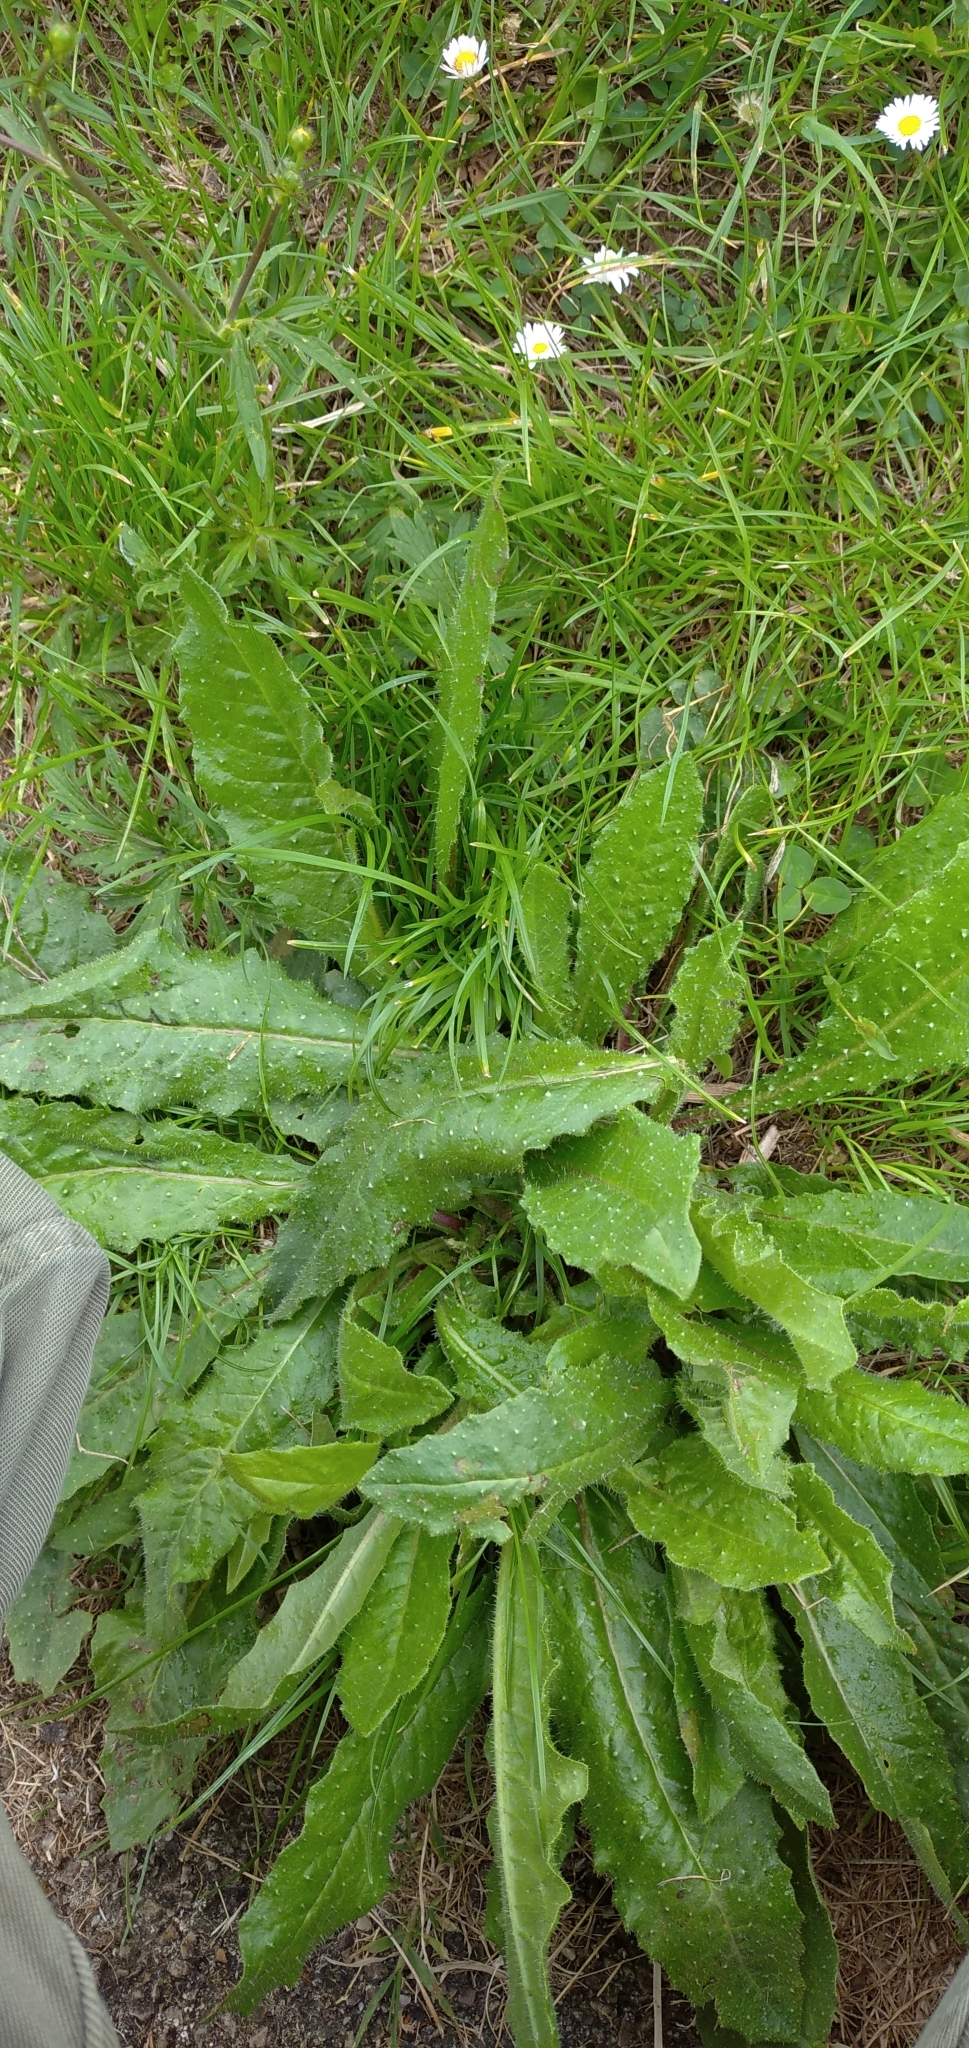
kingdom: Plantae
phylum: Tracheophyta
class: Magnoliopsida
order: Asterales
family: Asteraceae
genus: Helminthotheca
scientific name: Helminthotheca echioides
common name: Ox-tongue
